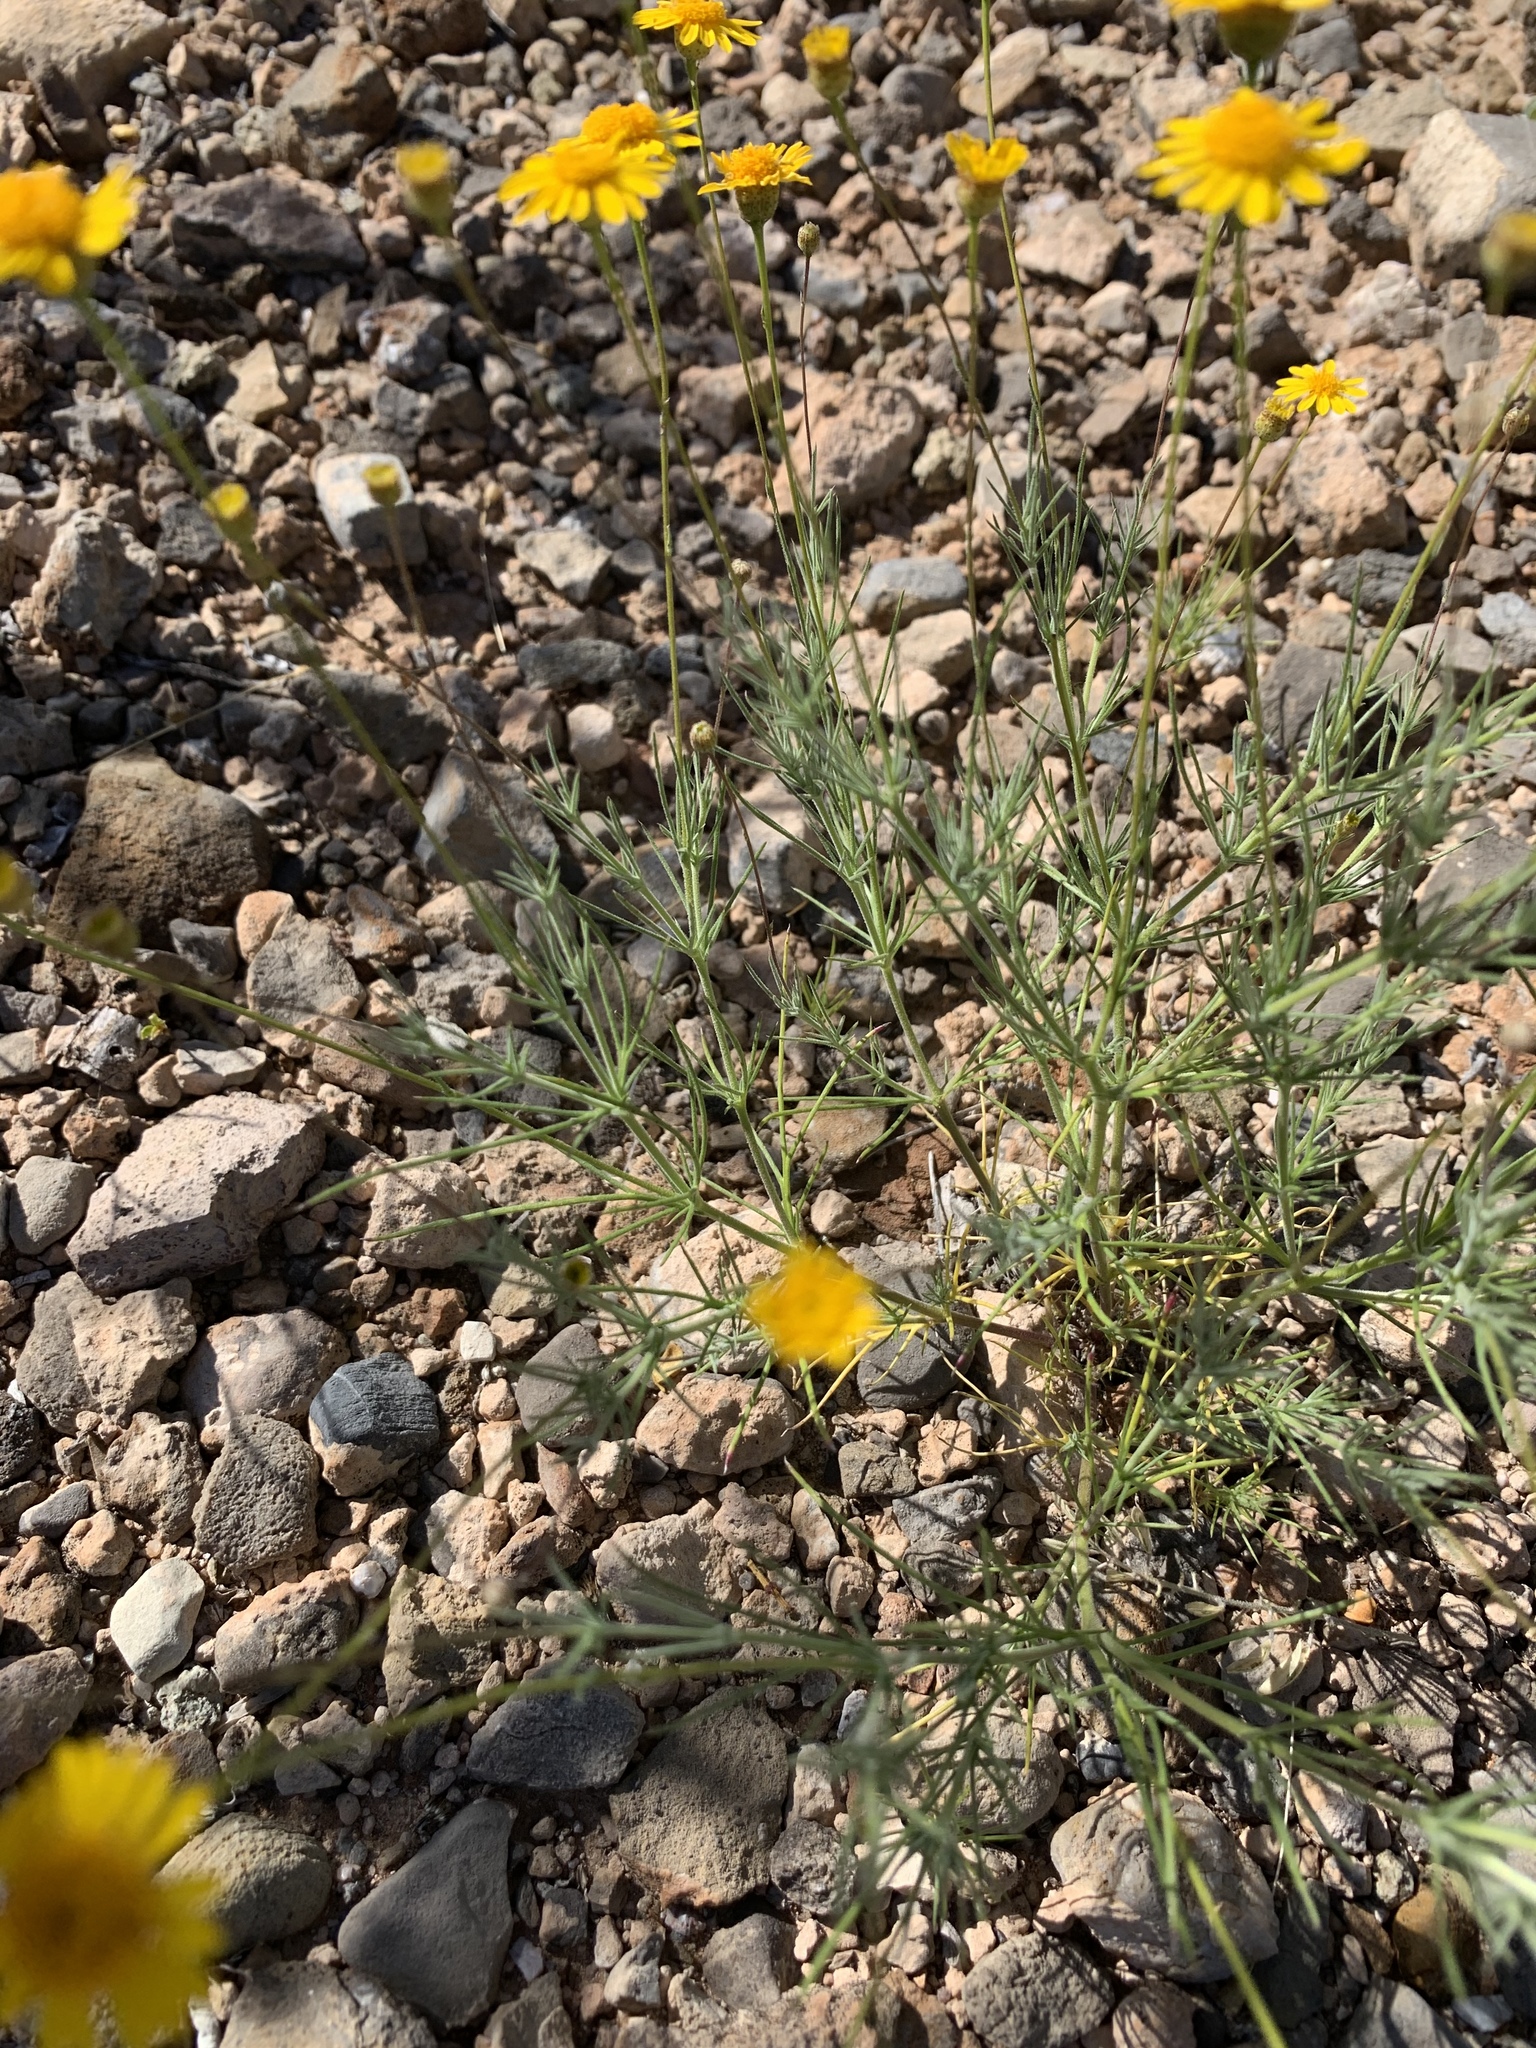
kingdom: Plantae
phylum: Tracheophyta
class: Magnoliopsida
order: Asterales
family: Asteraceae
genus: Thymophylla
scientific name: Thymophylla pentachaeta
